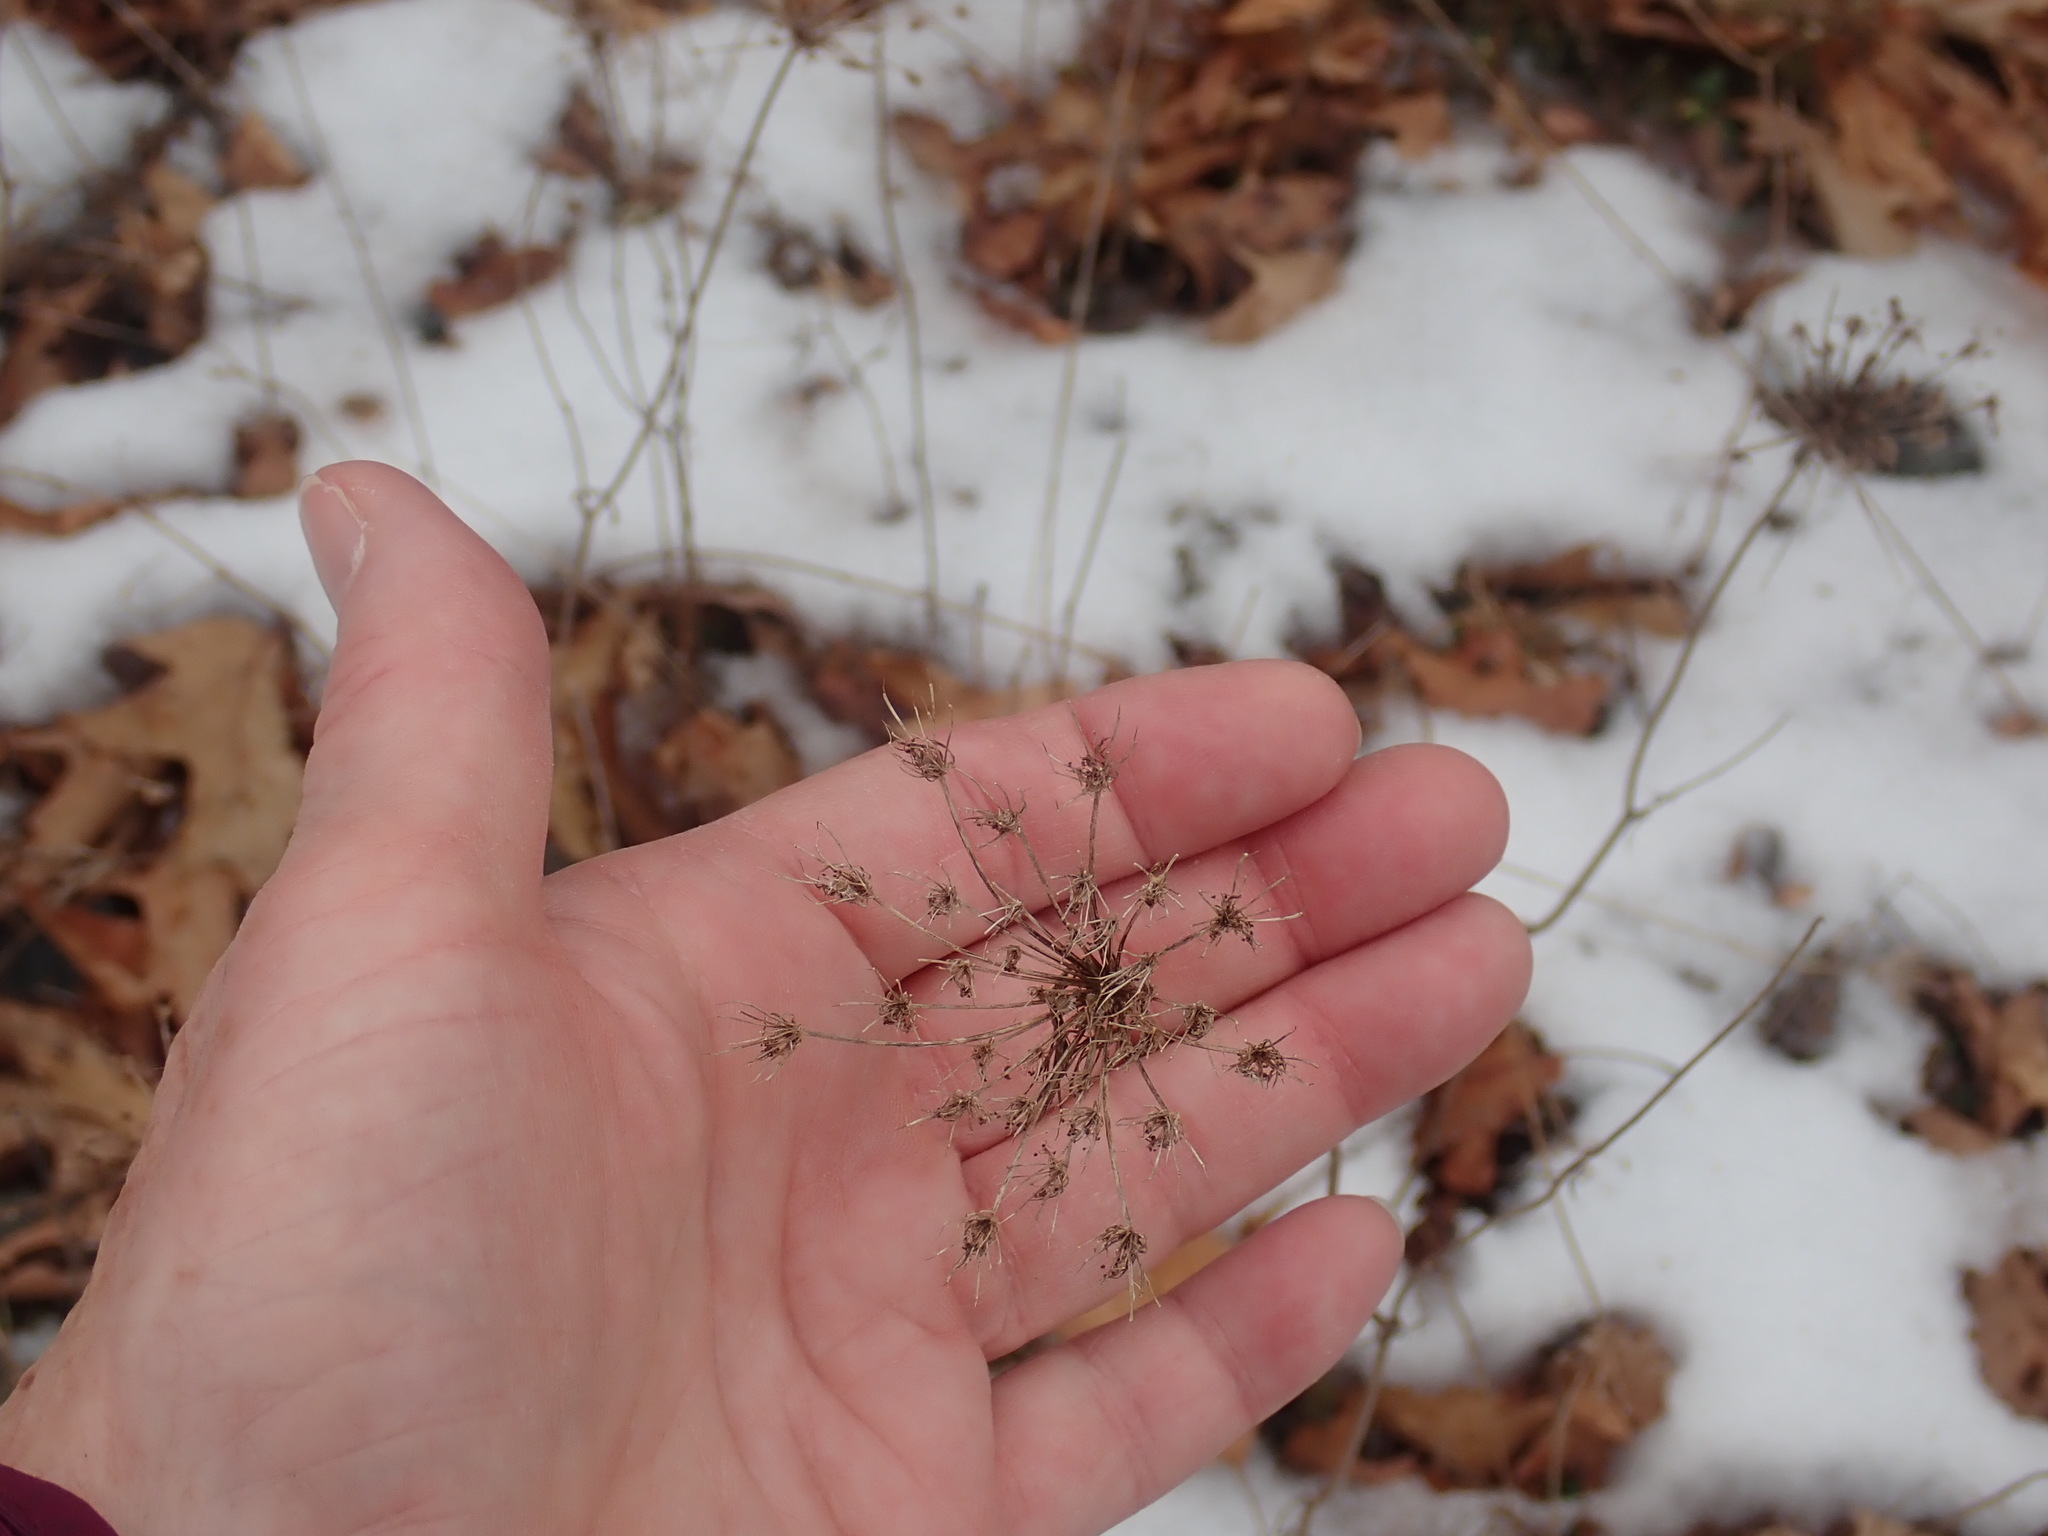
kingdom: Plantae
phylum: Tracheophyta
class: Magnoliopsida
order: Apiales
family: Apiaceae
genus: Daucus
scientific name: Daucus carota
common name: Wild carrot
